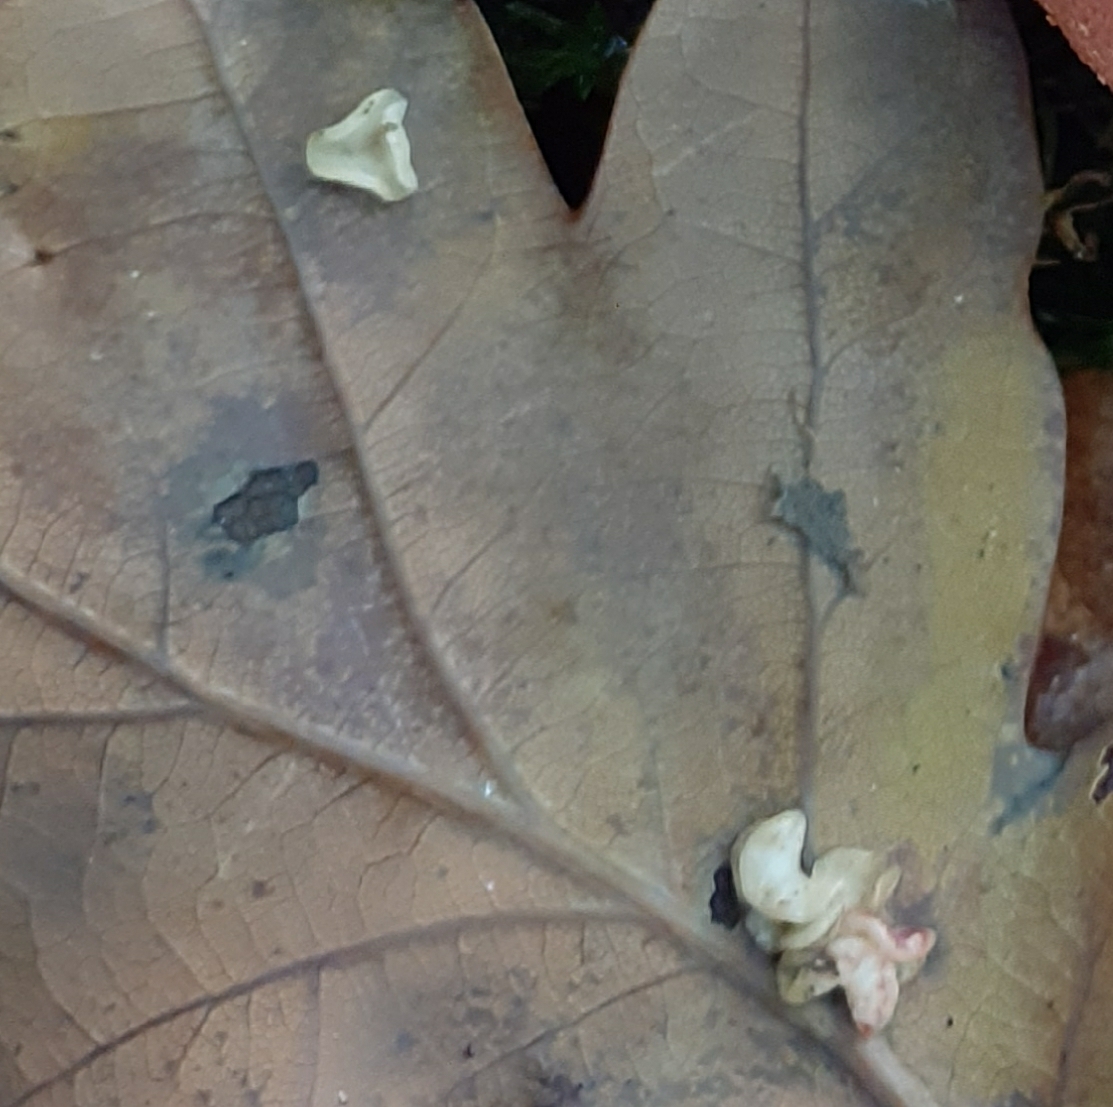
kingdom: Animalia
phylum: Arthropoda
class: Insecta
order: Hymenoptera
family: Cynipidae
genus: Neuroterus
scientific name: Neuroterus albipes
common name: Smooth spangle gall
